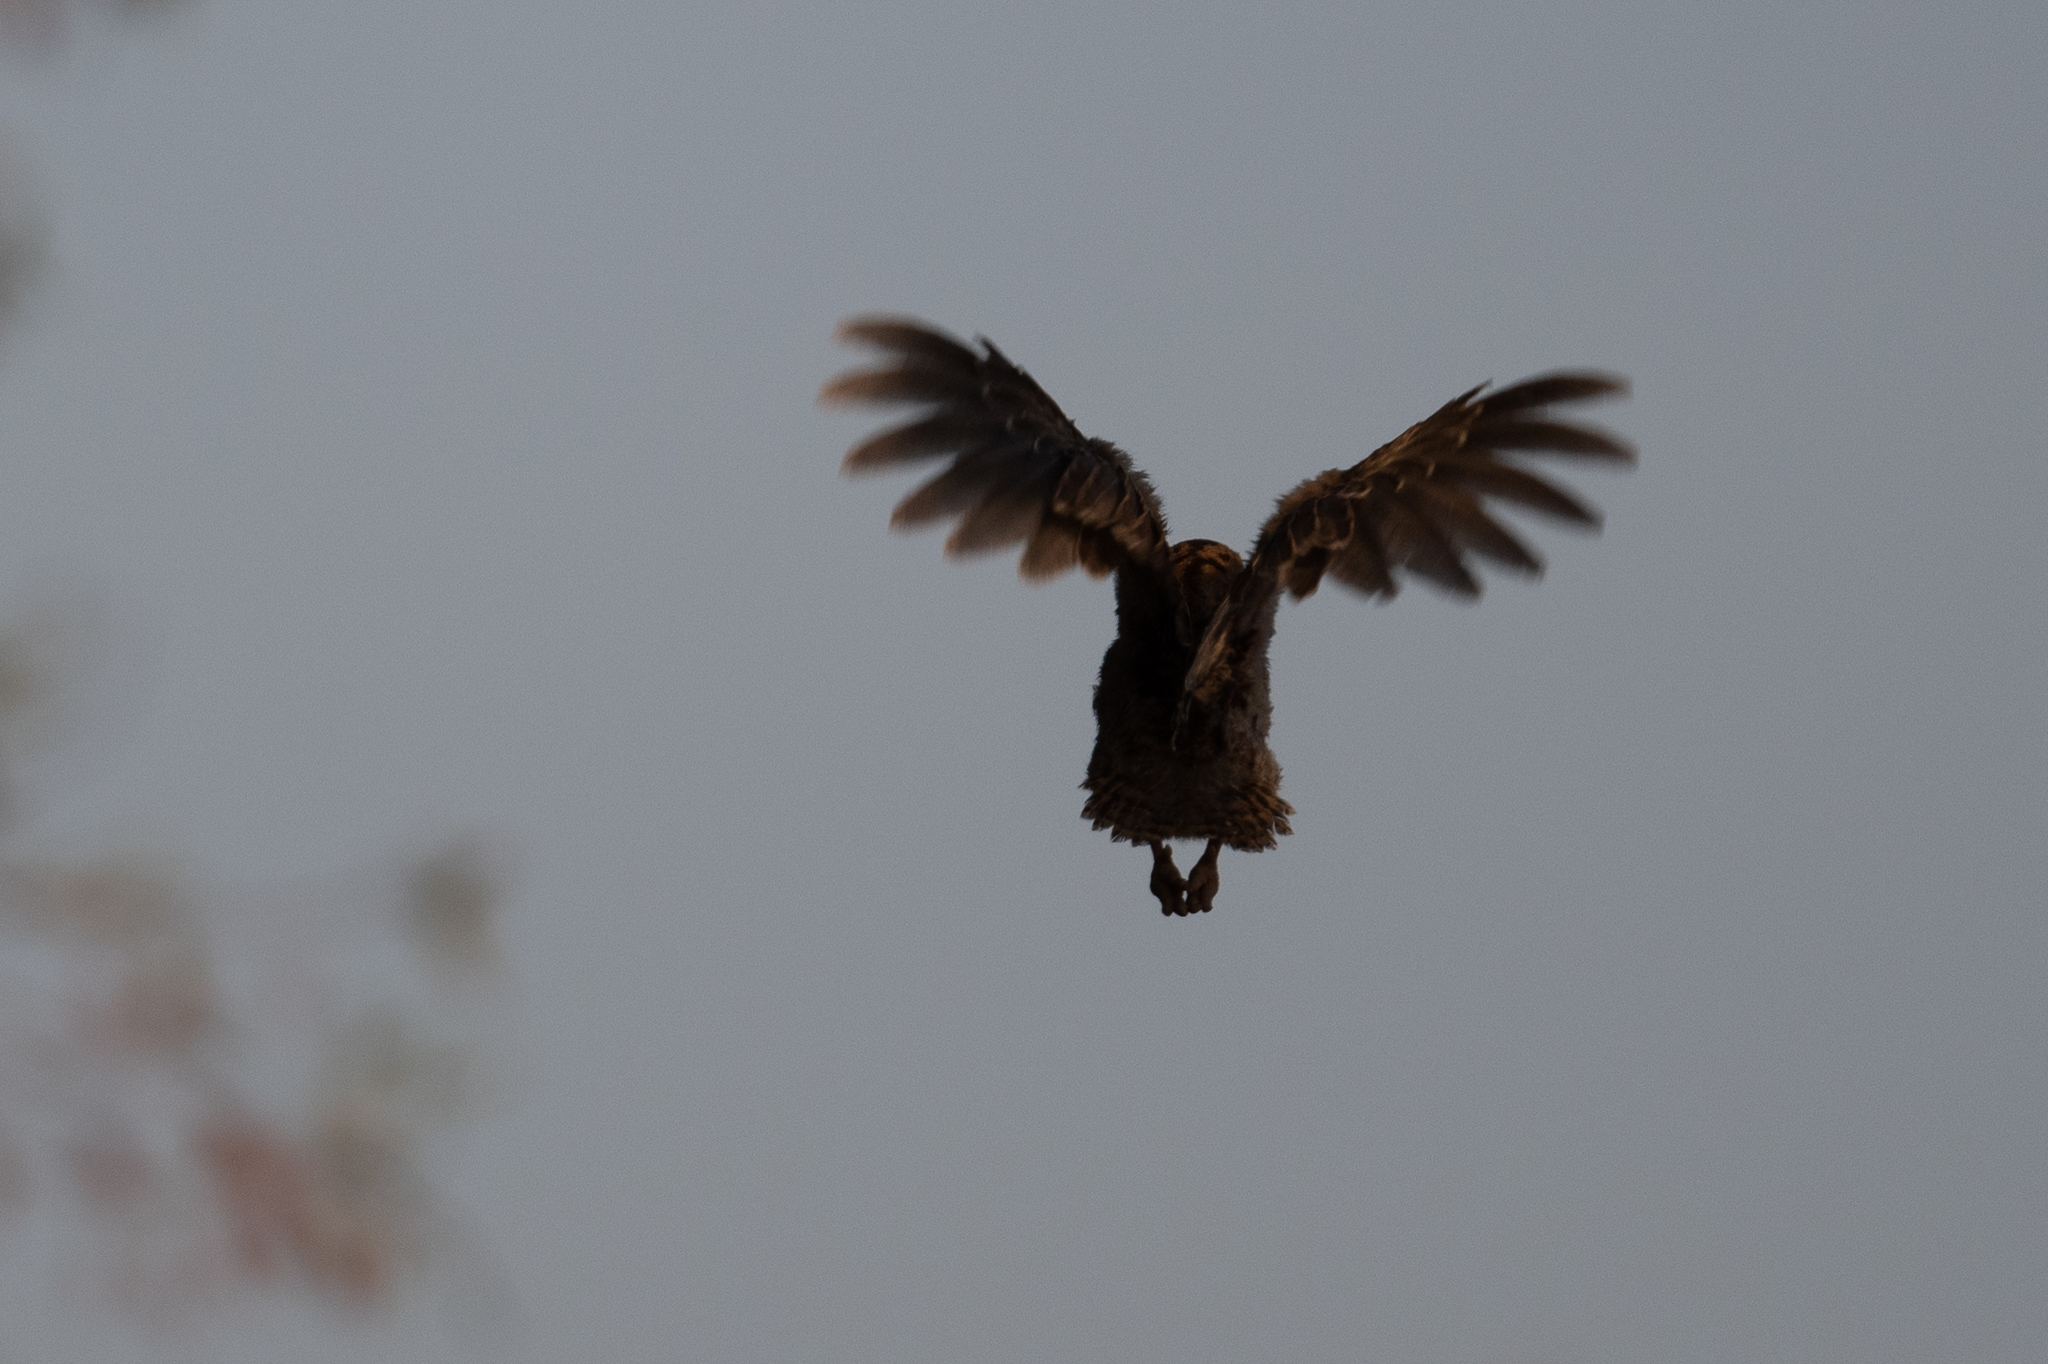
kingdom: Animalia
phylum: Chordata
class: Aves
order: Galliformes
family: Phasianidae
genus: Meleagris
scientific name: Meleagris gallopavo
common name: Wild turkey
